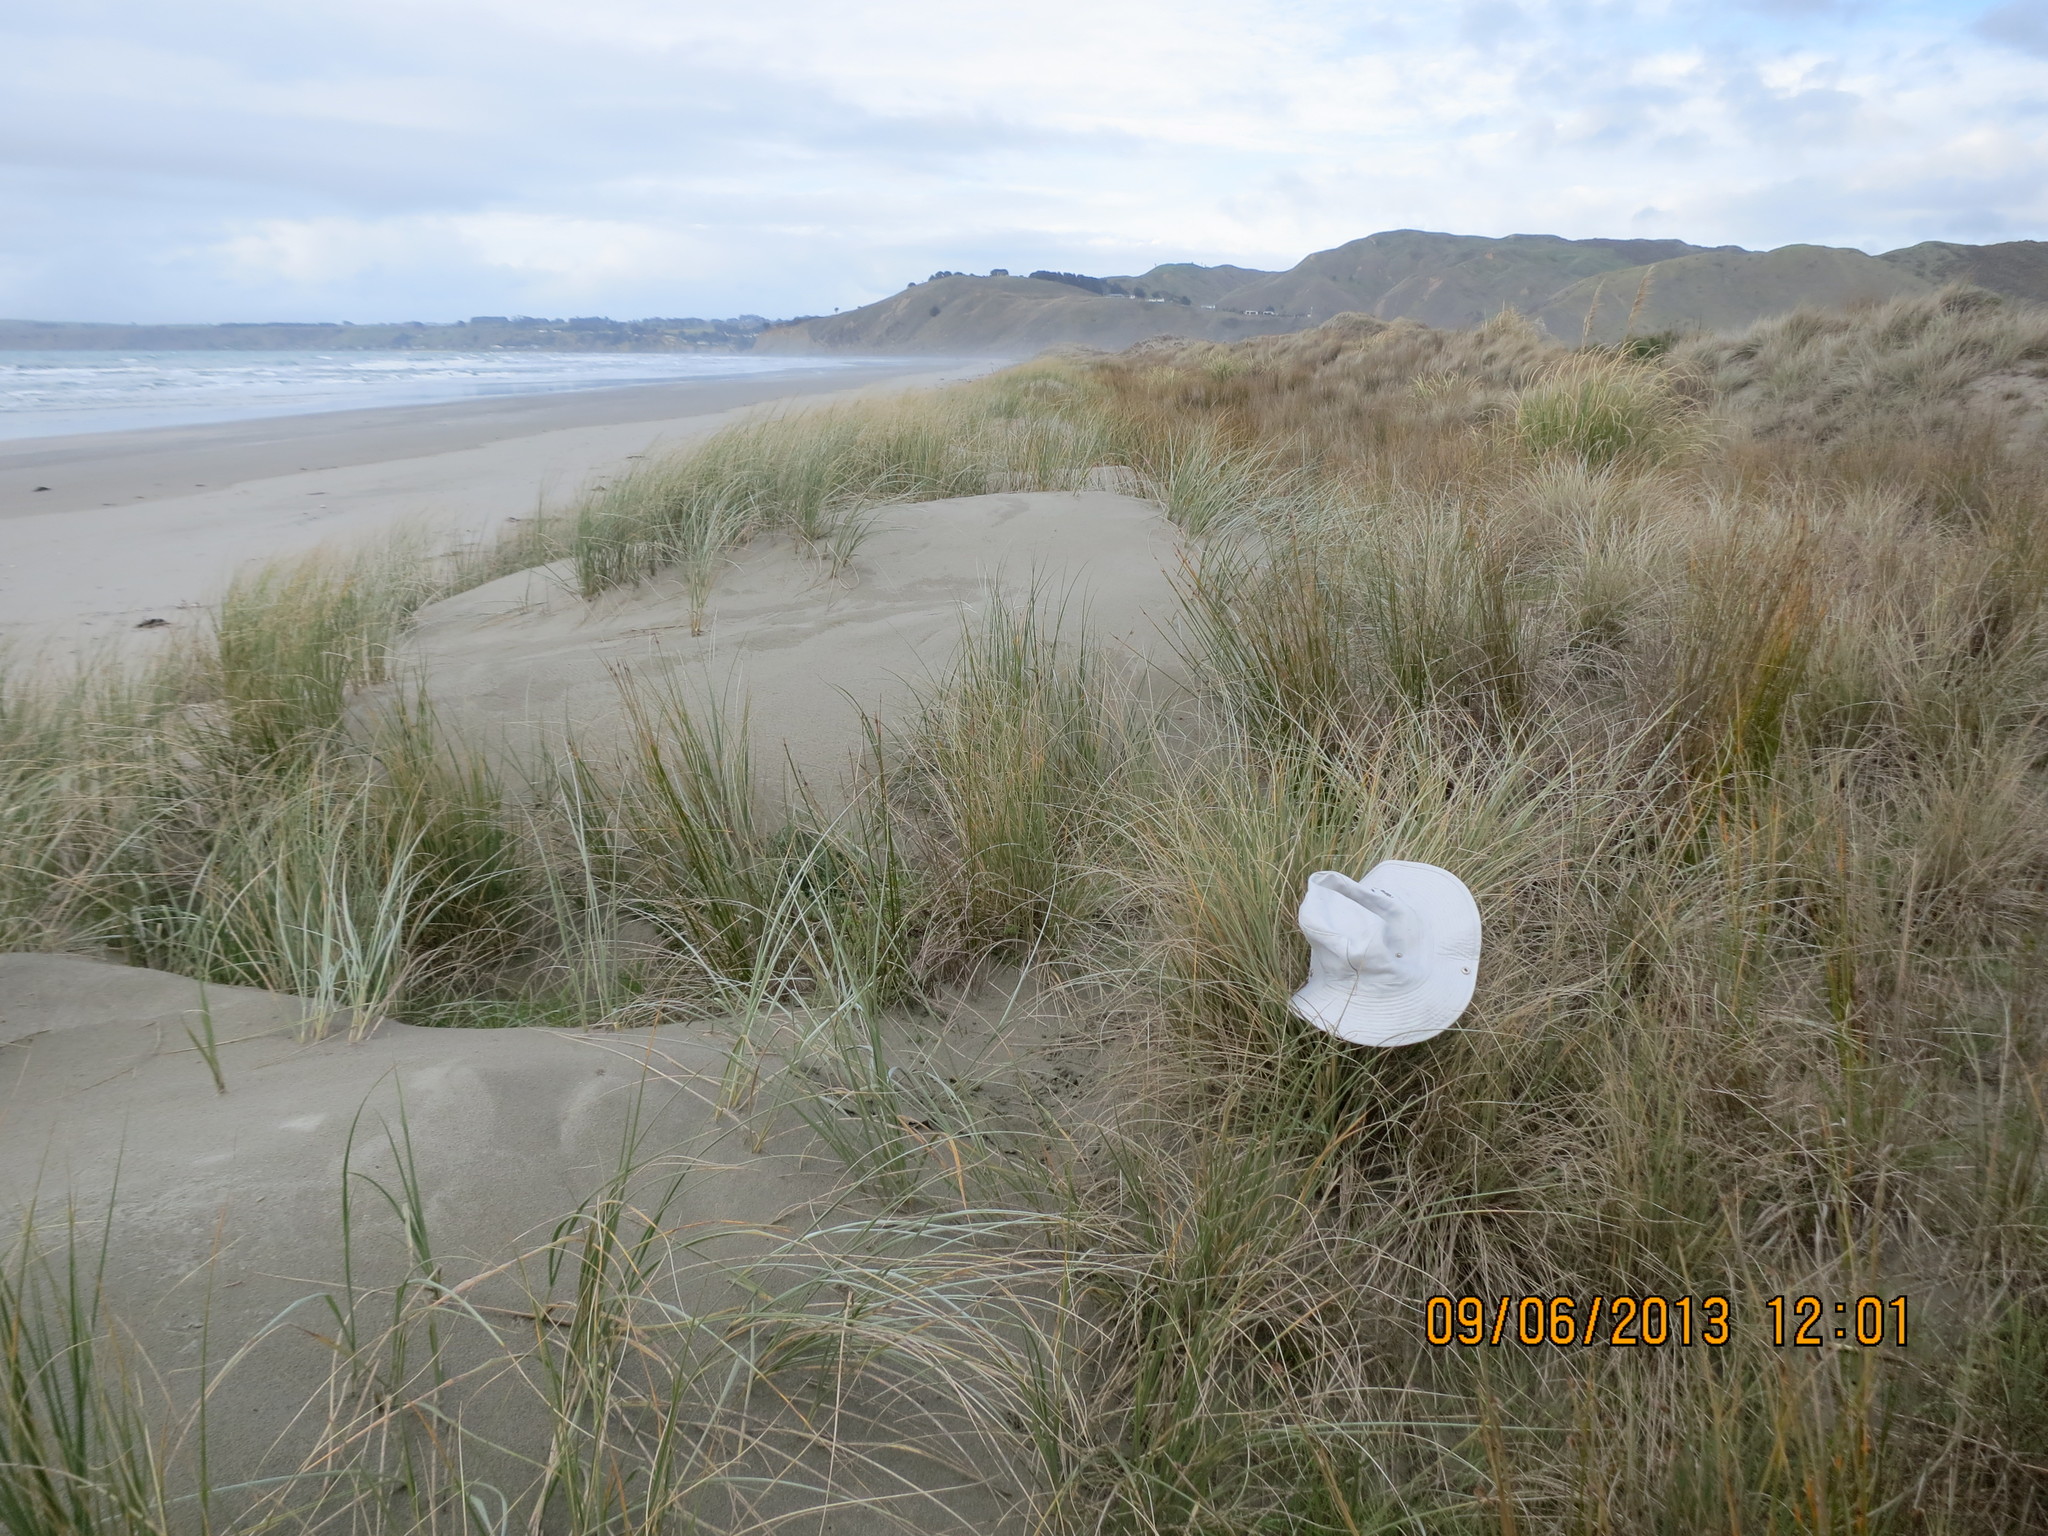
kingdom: Animalia
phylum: Arthropoda
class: Arachnida
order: Araneae
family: Theridiidae
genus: Latrodectus
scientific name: Latrodectus katipo
